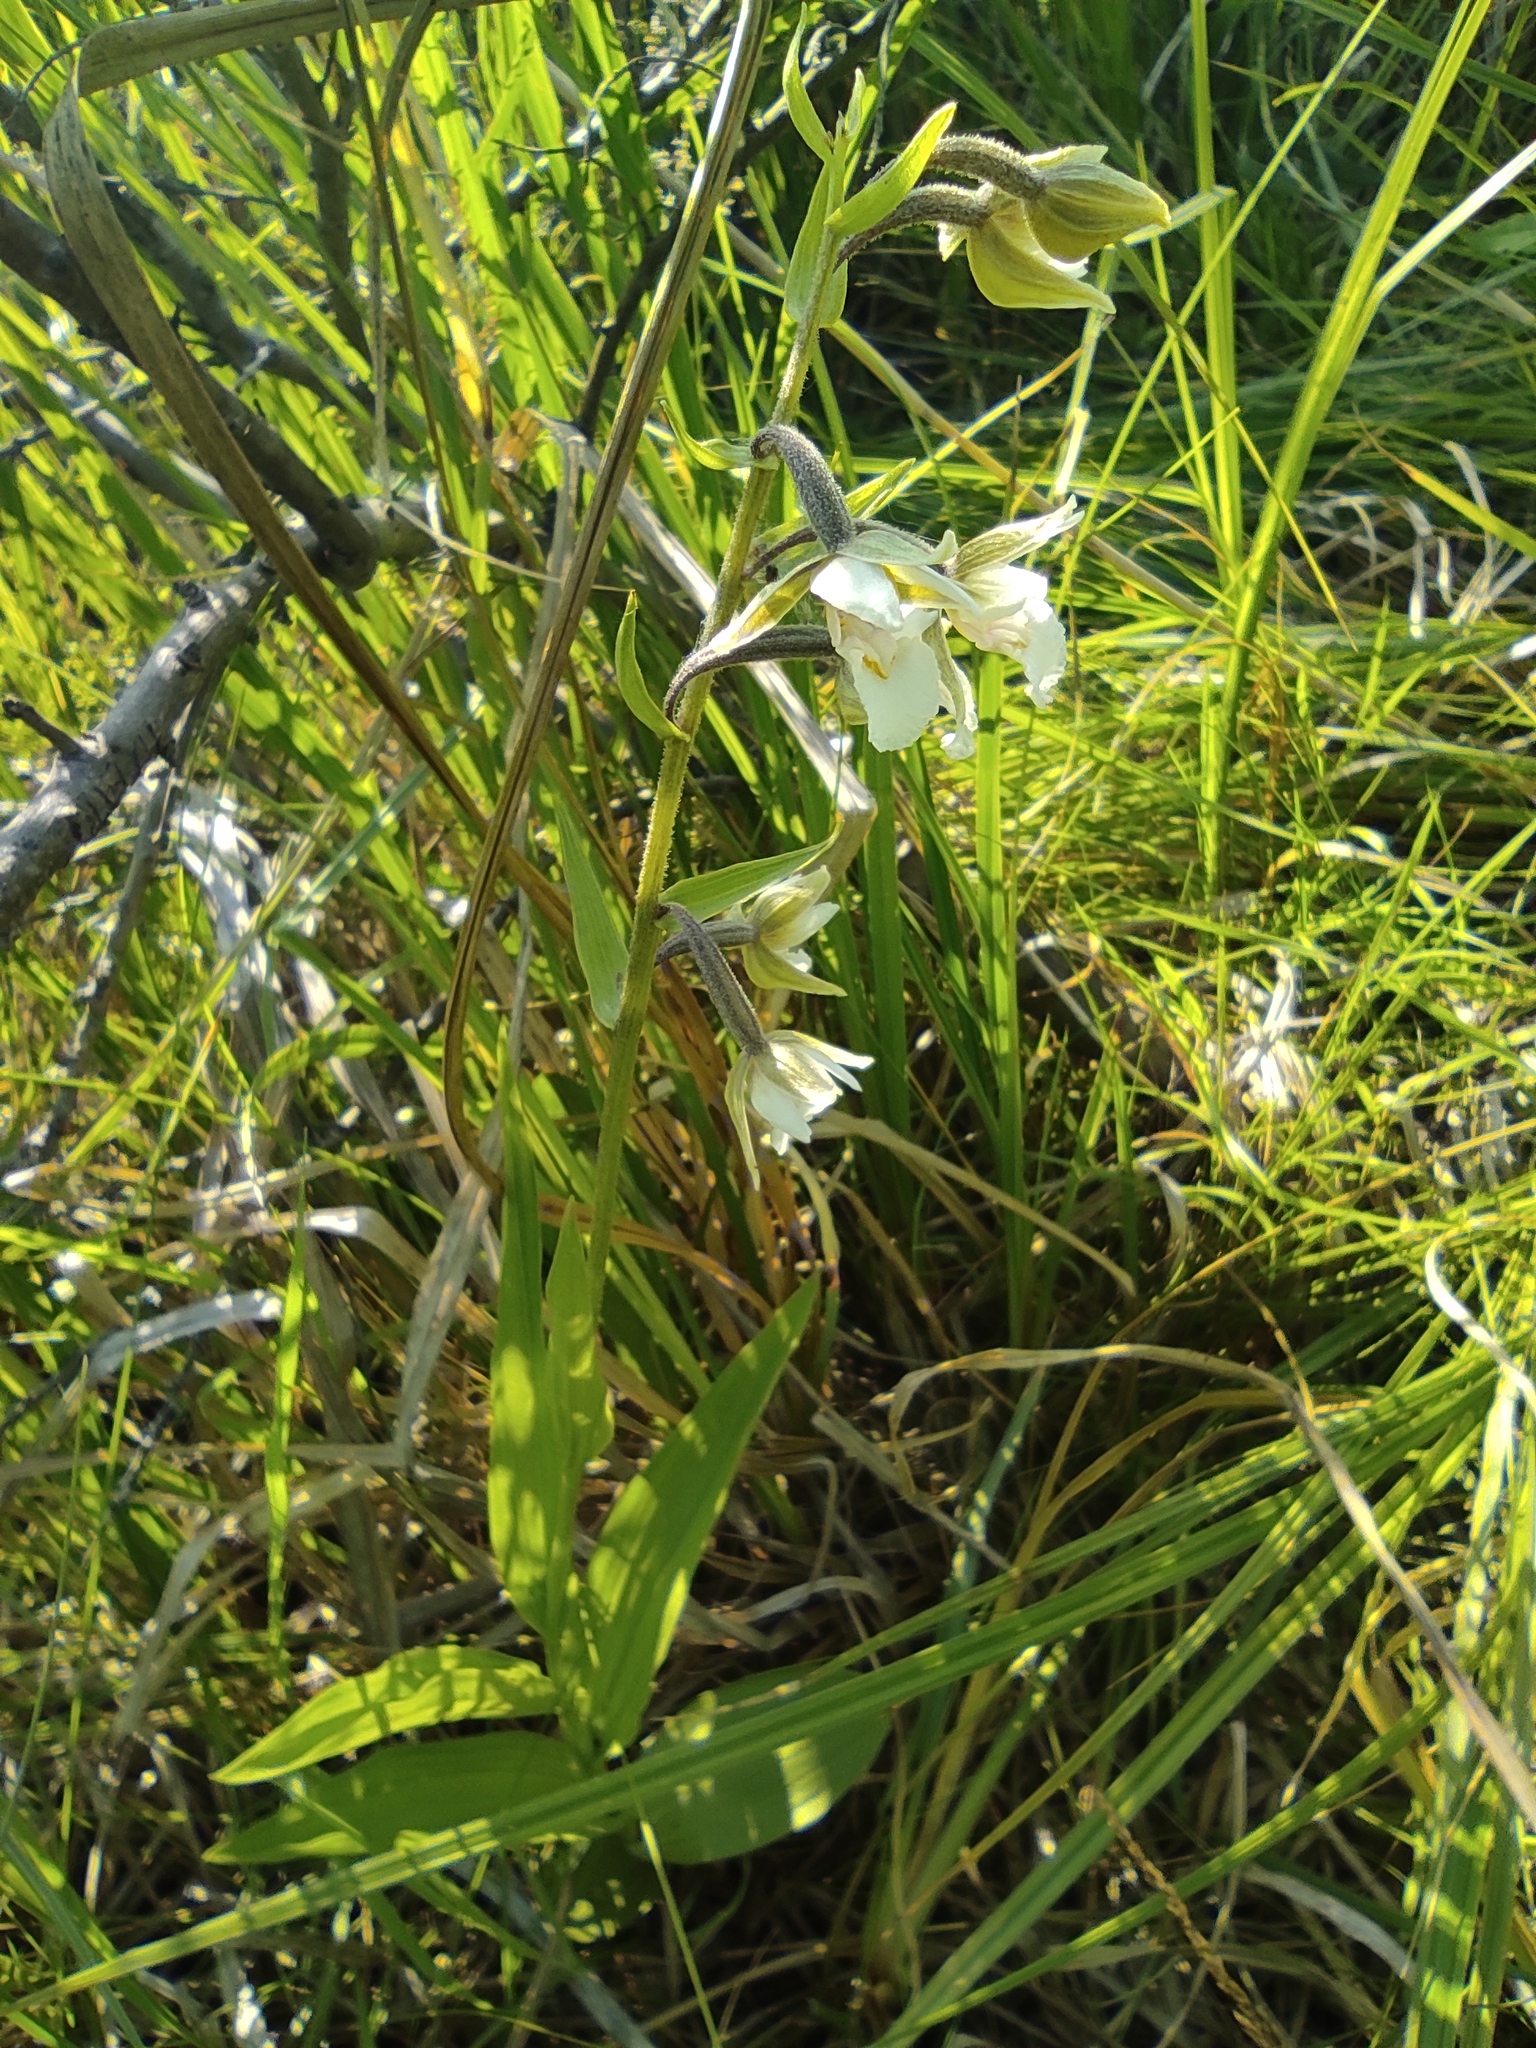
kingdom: Plantae
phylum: Tracheophyta
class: Liliopsida
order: Asparagales
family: Orchidaceae
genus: Epipactis
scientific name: Epipactis palustris
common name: Marsh helleborine
